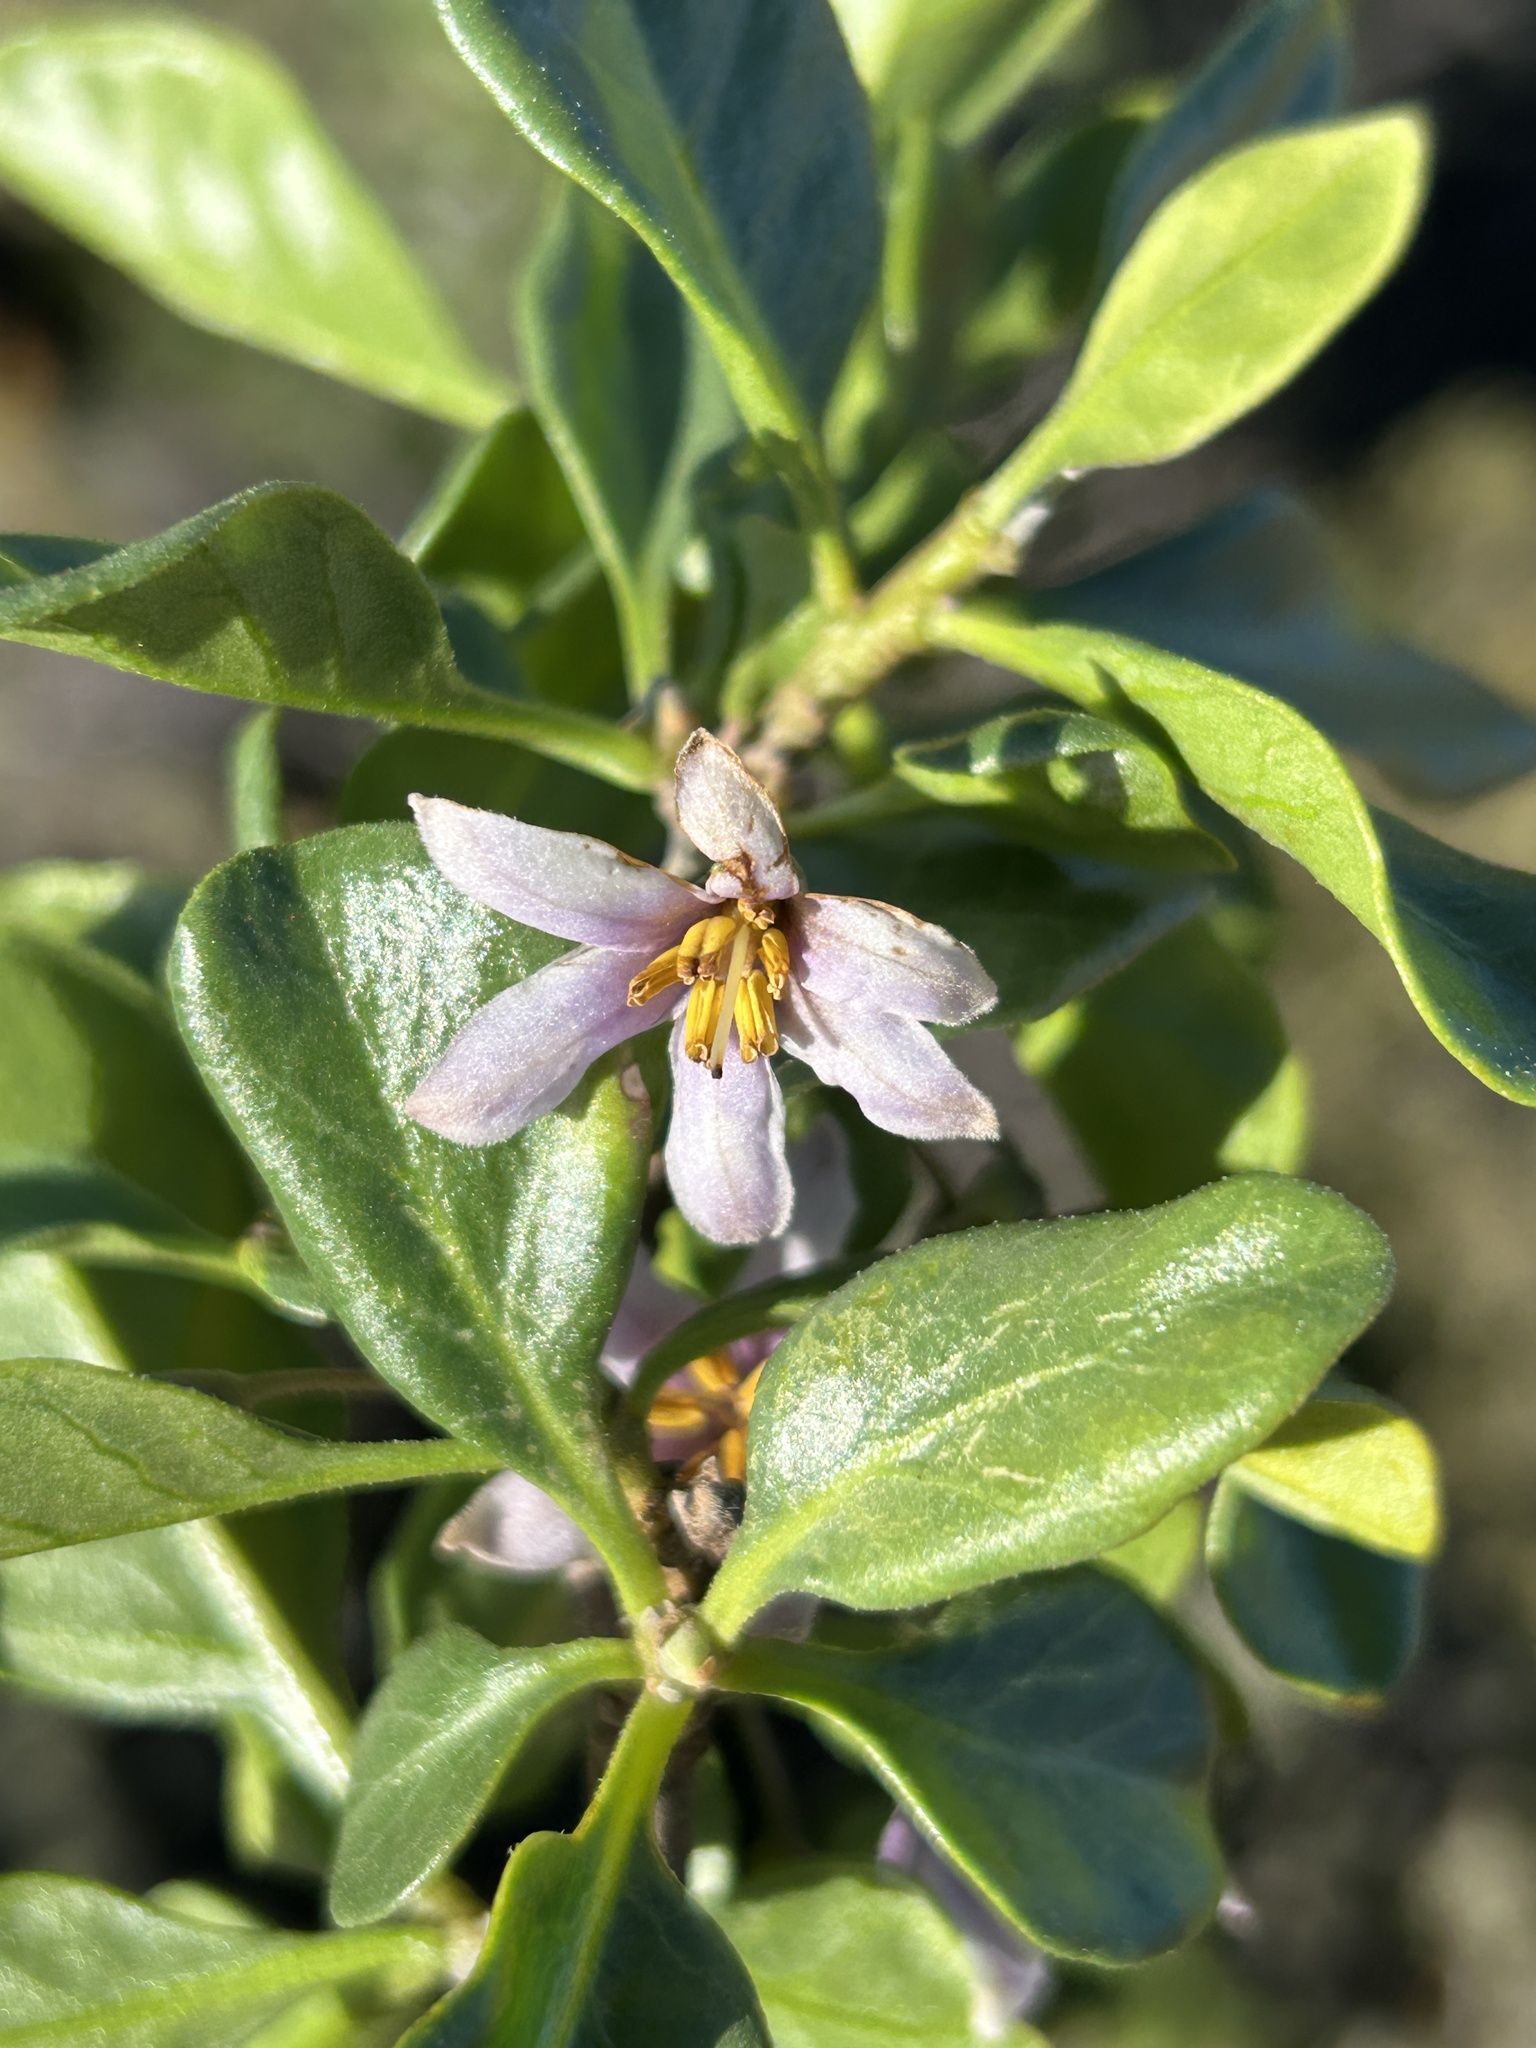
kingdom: Plantae
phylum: Tracheophyta
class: Magnoliopsida
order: Solanales
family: Solanaceae
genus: Solanum
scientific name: Solanum guineense
